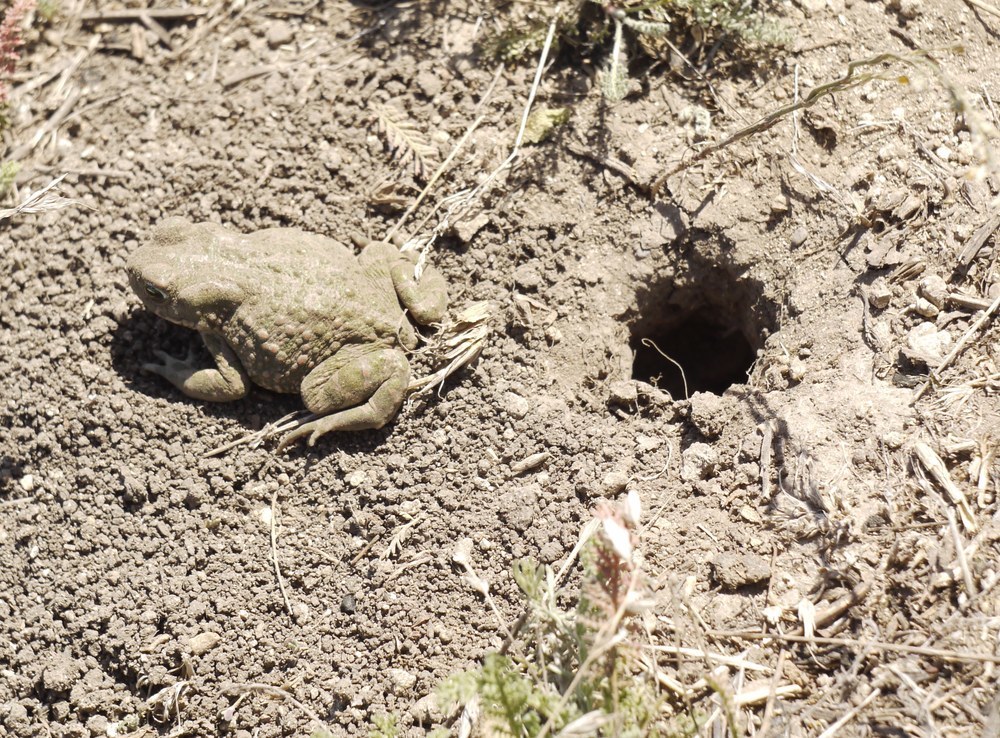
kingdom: Animalia
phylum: Chordata
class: Amphibia
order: Anura
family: Bufonidae
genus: Bufotes
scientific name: Bufotes viridis
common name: European green toad
